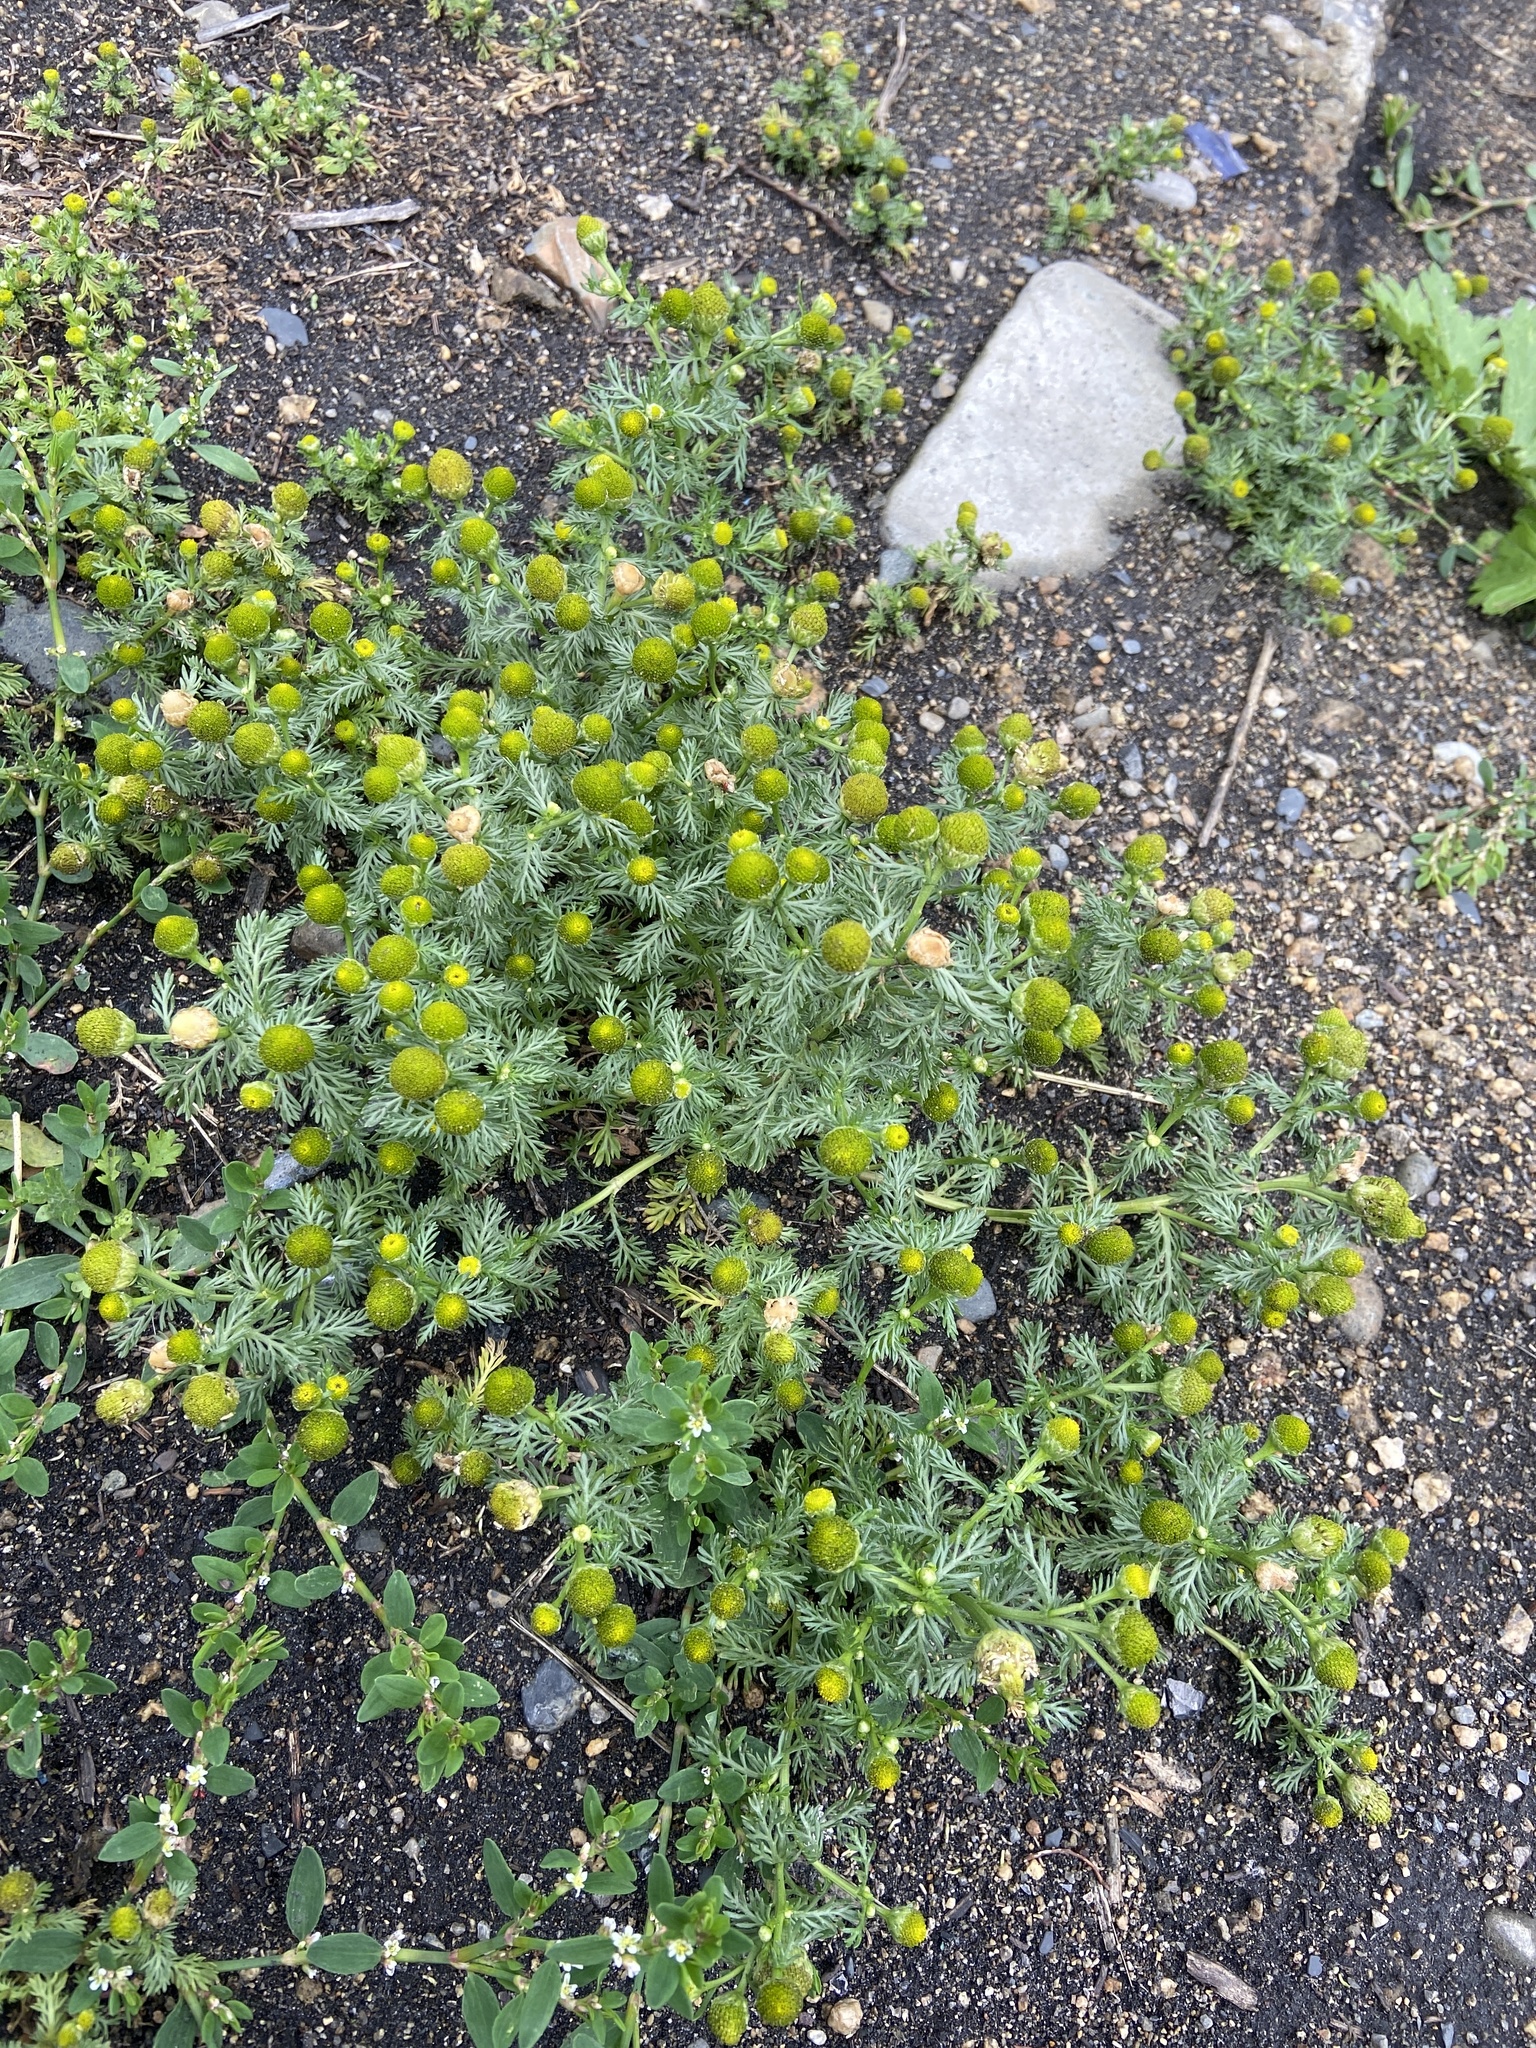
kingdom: Plantae
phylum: Tracheophyta
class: Magnoliopsida
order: Asterales
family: Asteraceae
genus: Matricaria
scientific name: Matricaria discoidea
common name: Disc mayweed
